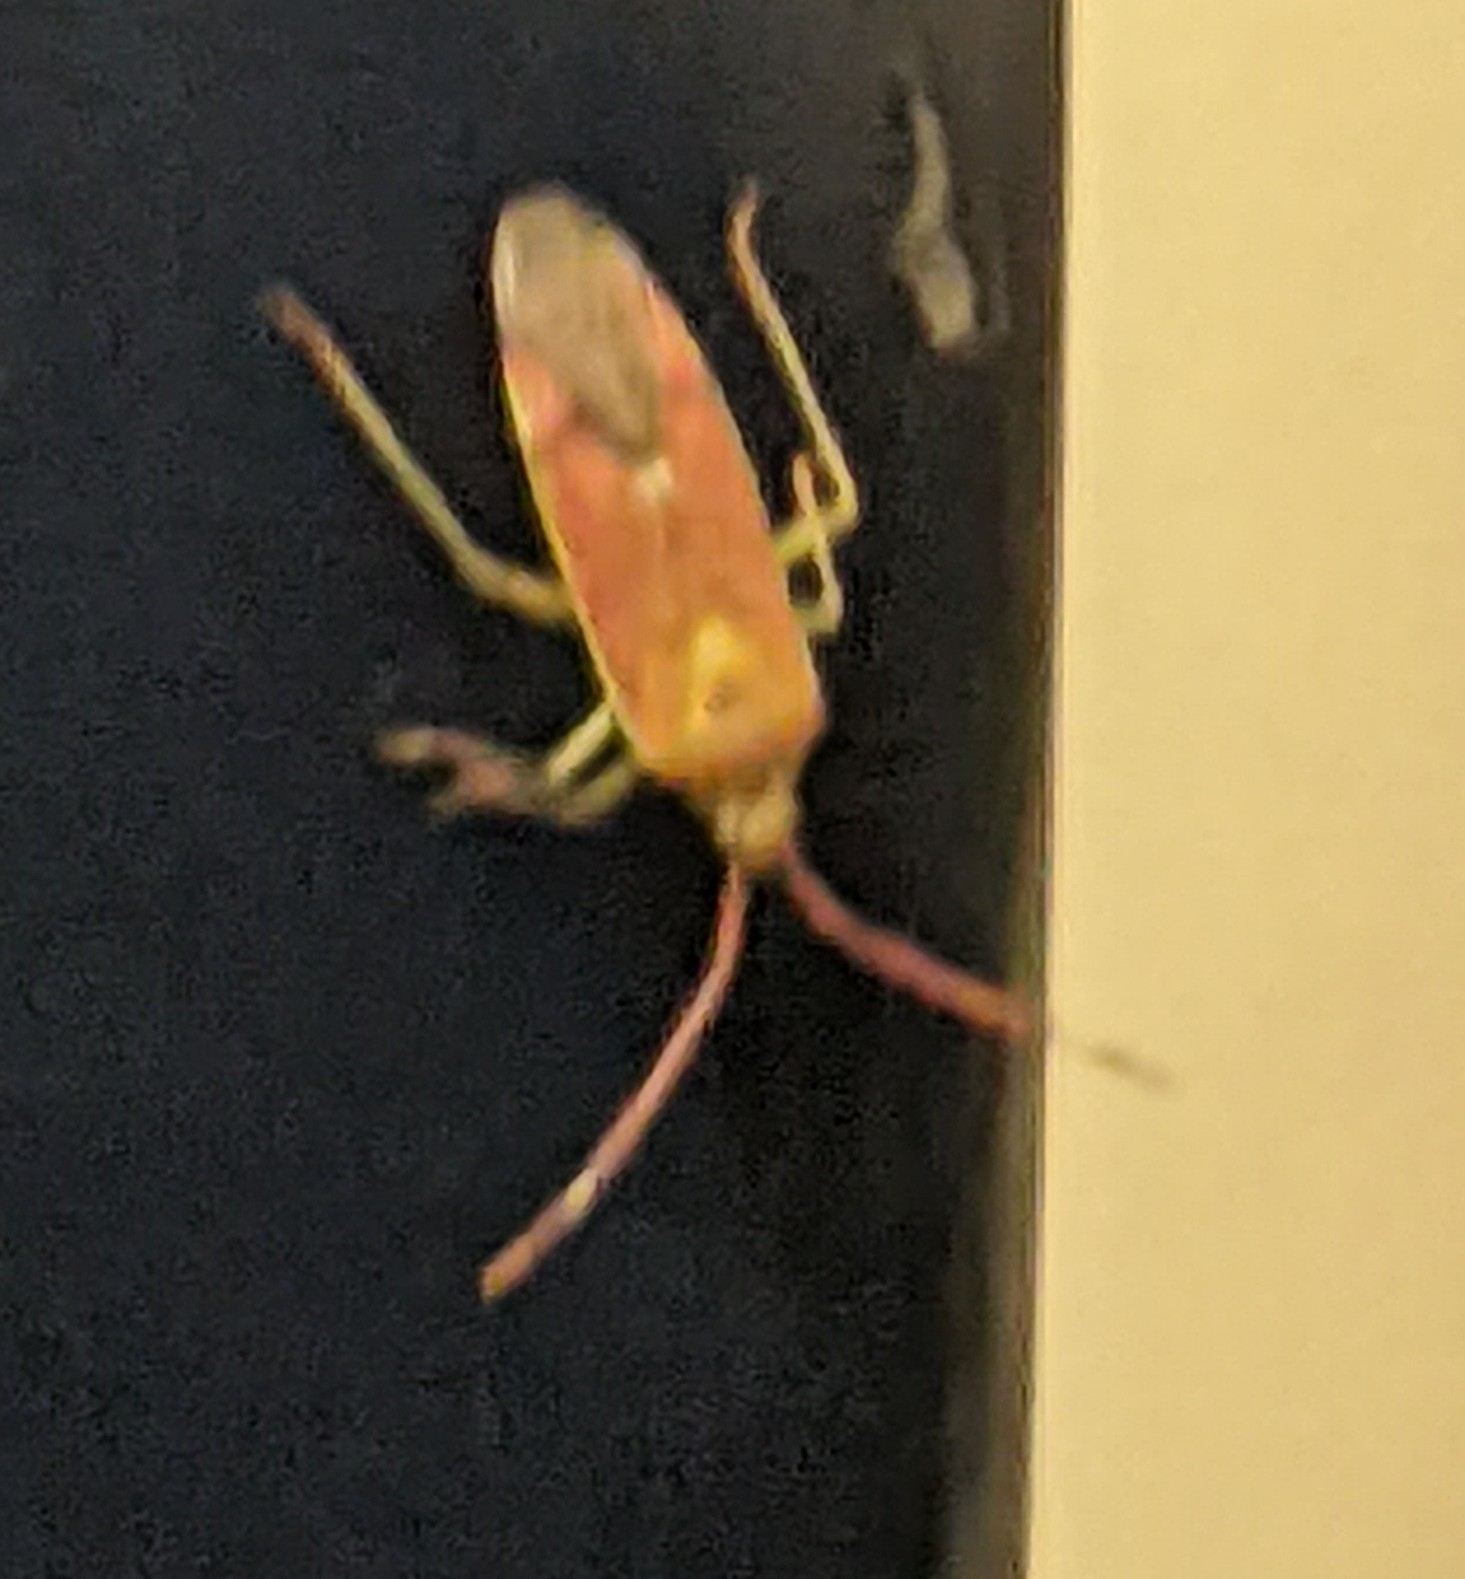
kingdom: Animalia
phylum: Arthropoda
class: Insecta
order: Hemiptera
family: Miridae
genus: Pantilius
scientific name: Pantilius tunicatus
